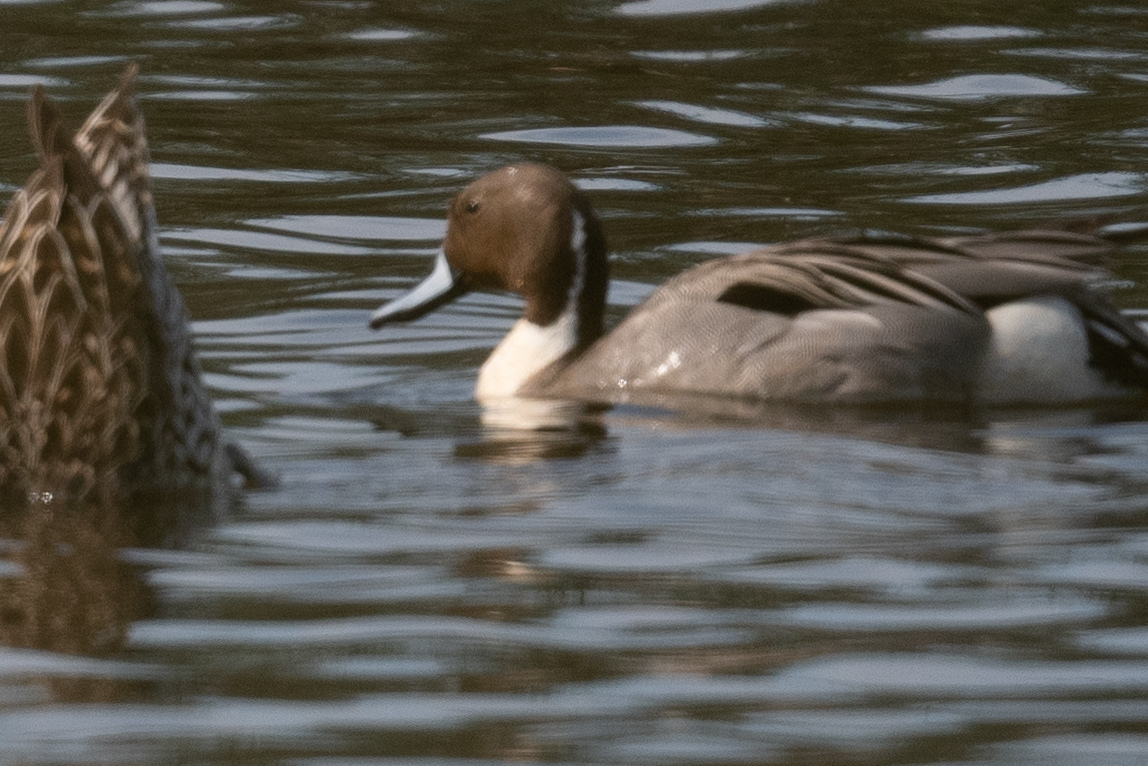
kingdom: Animalia
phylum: Chordata
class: Aves
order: Anseriformes
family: Anatidae
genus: Anas
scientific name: Anas acuta
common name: Northern pintail
